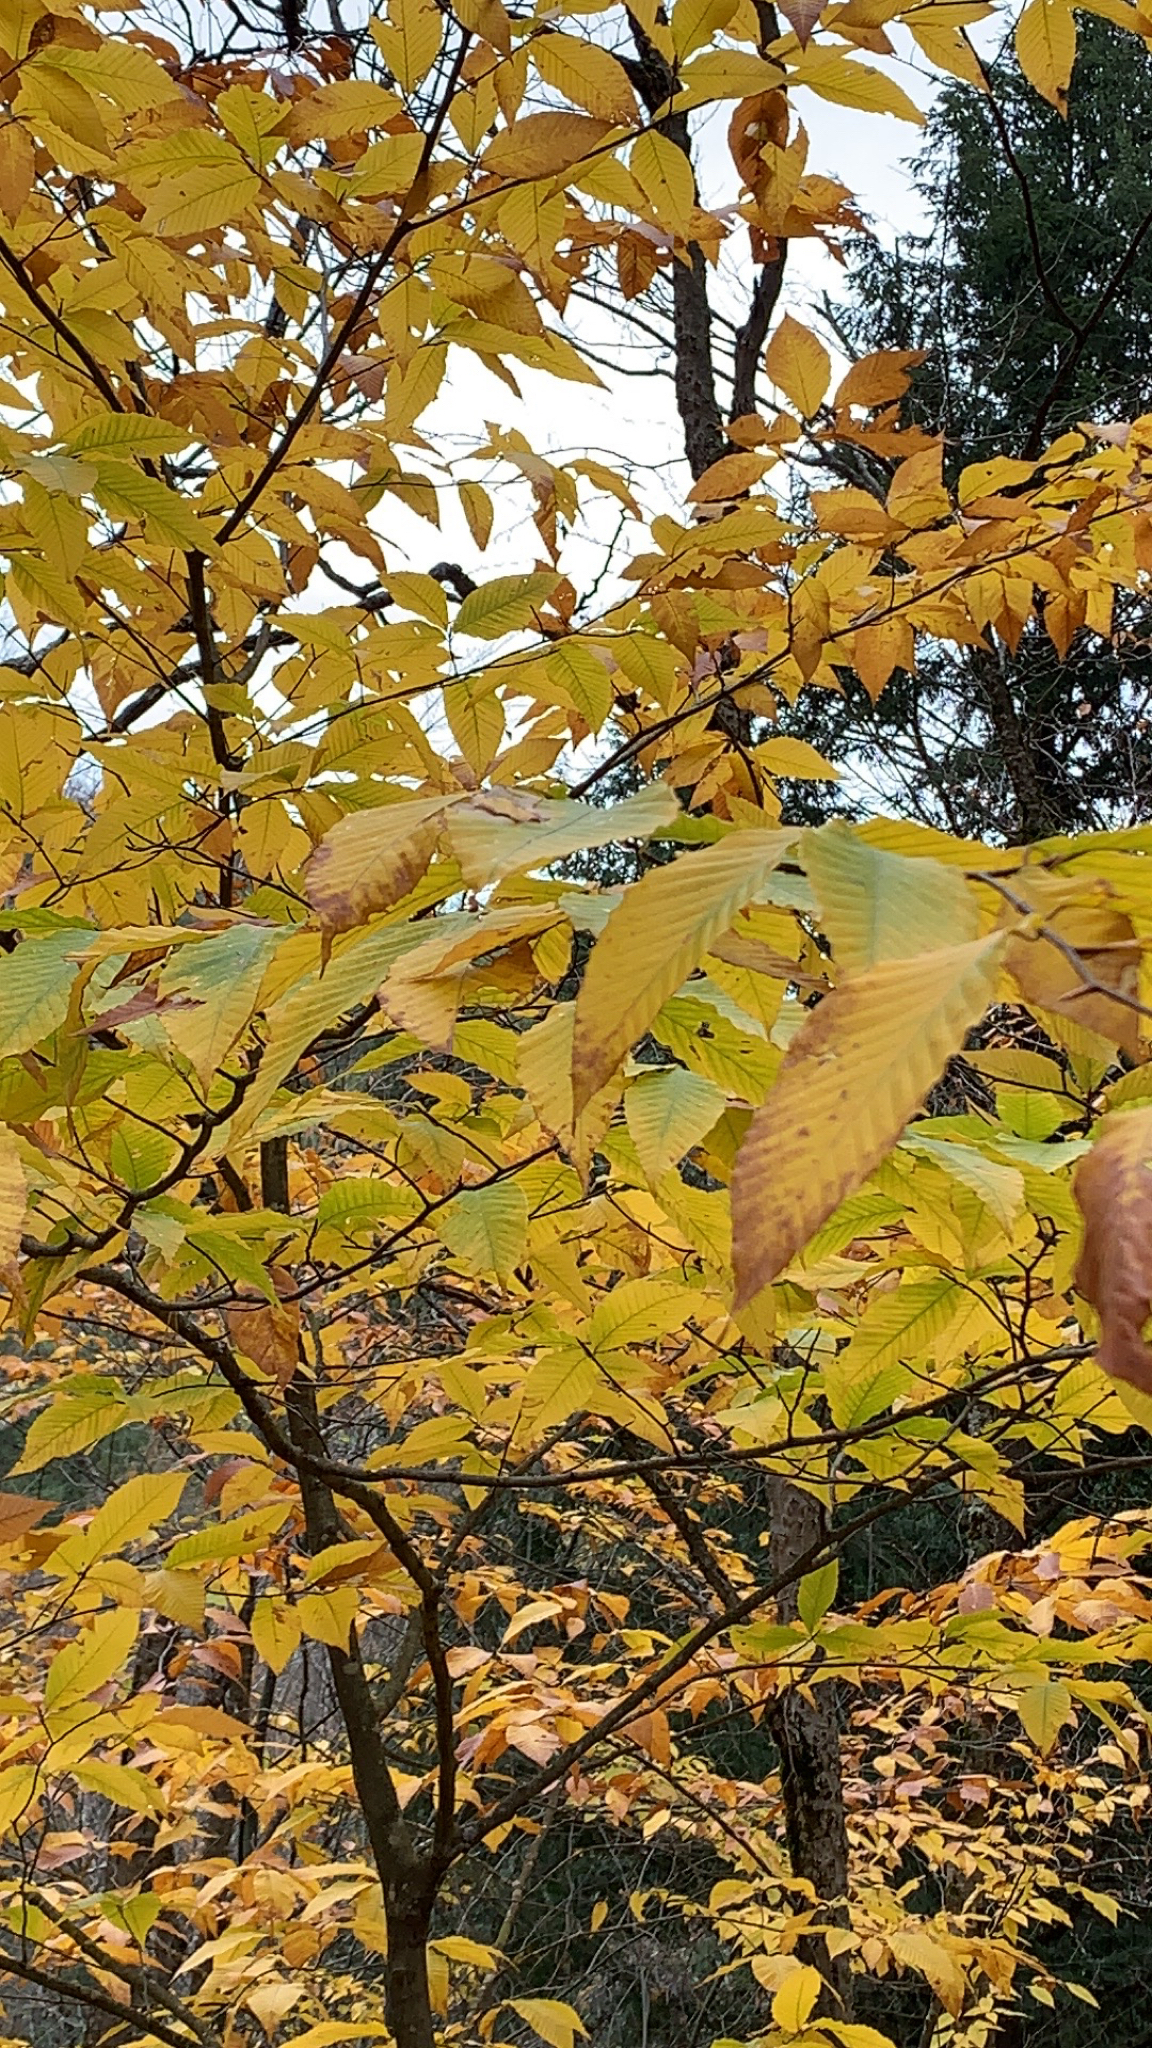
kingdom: Plantae
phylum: Tracheophyta
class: Magnoliopsida
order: Fagales
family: Fagaceae
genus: Fagus
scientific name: Fagus grandifolia
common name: American beech
